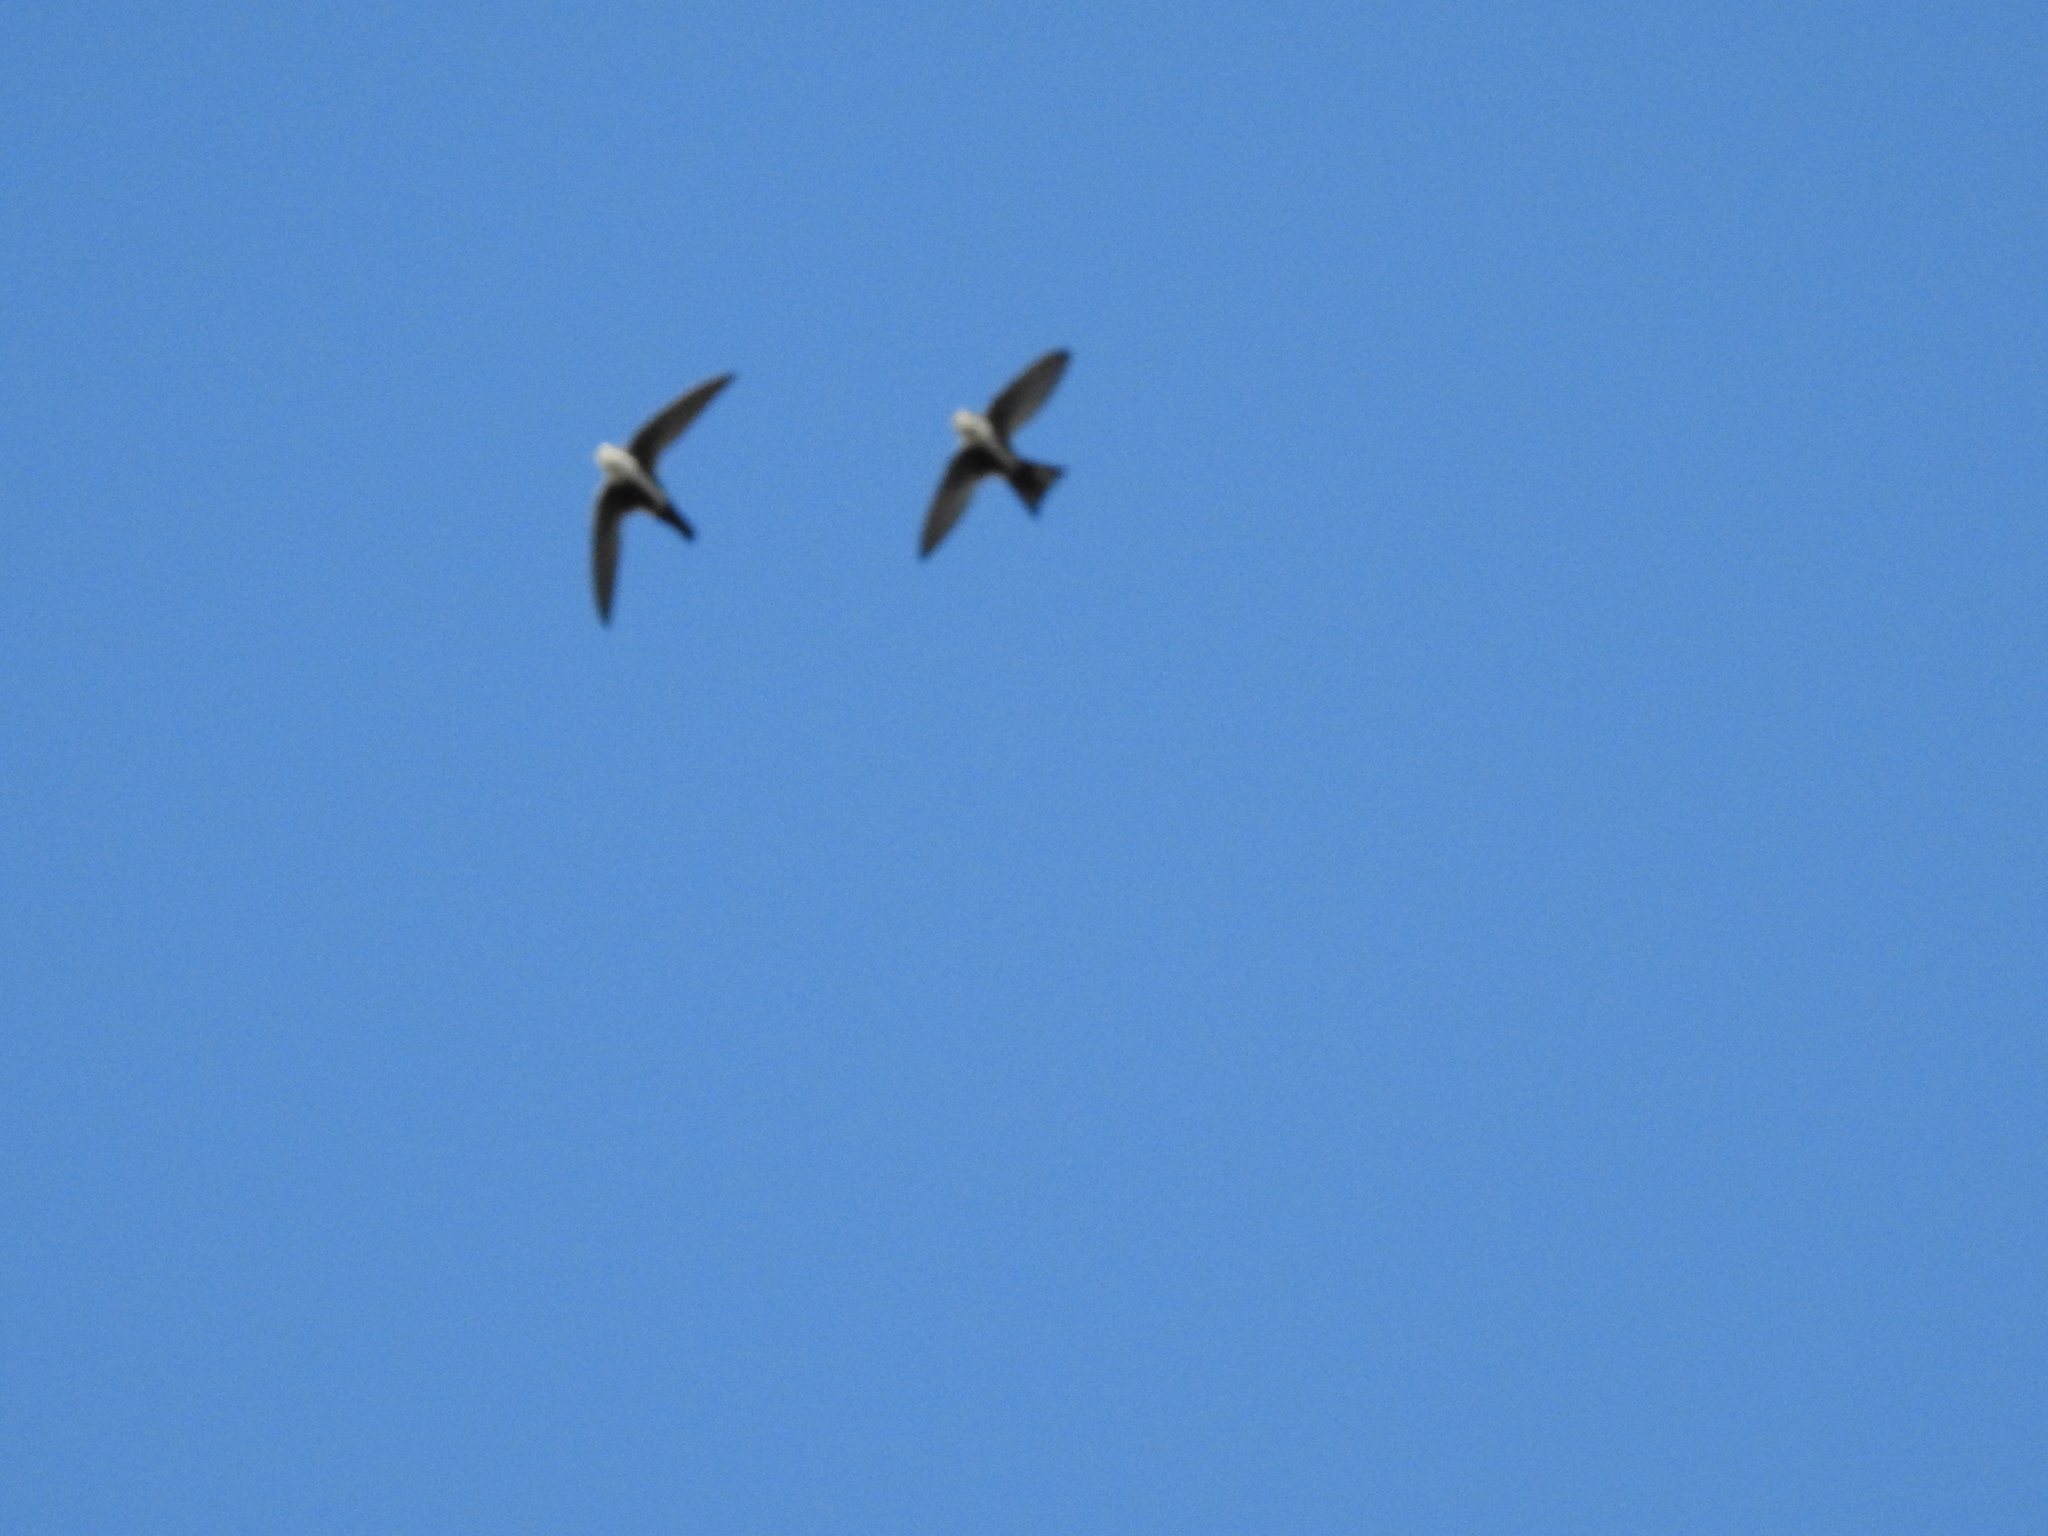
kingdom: Animalia
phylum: Chordata
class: Aves
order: Apodiformes
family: Apodidae
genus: Aeronautes
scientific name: Aeronautes saxatalis
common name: White-throated swift
